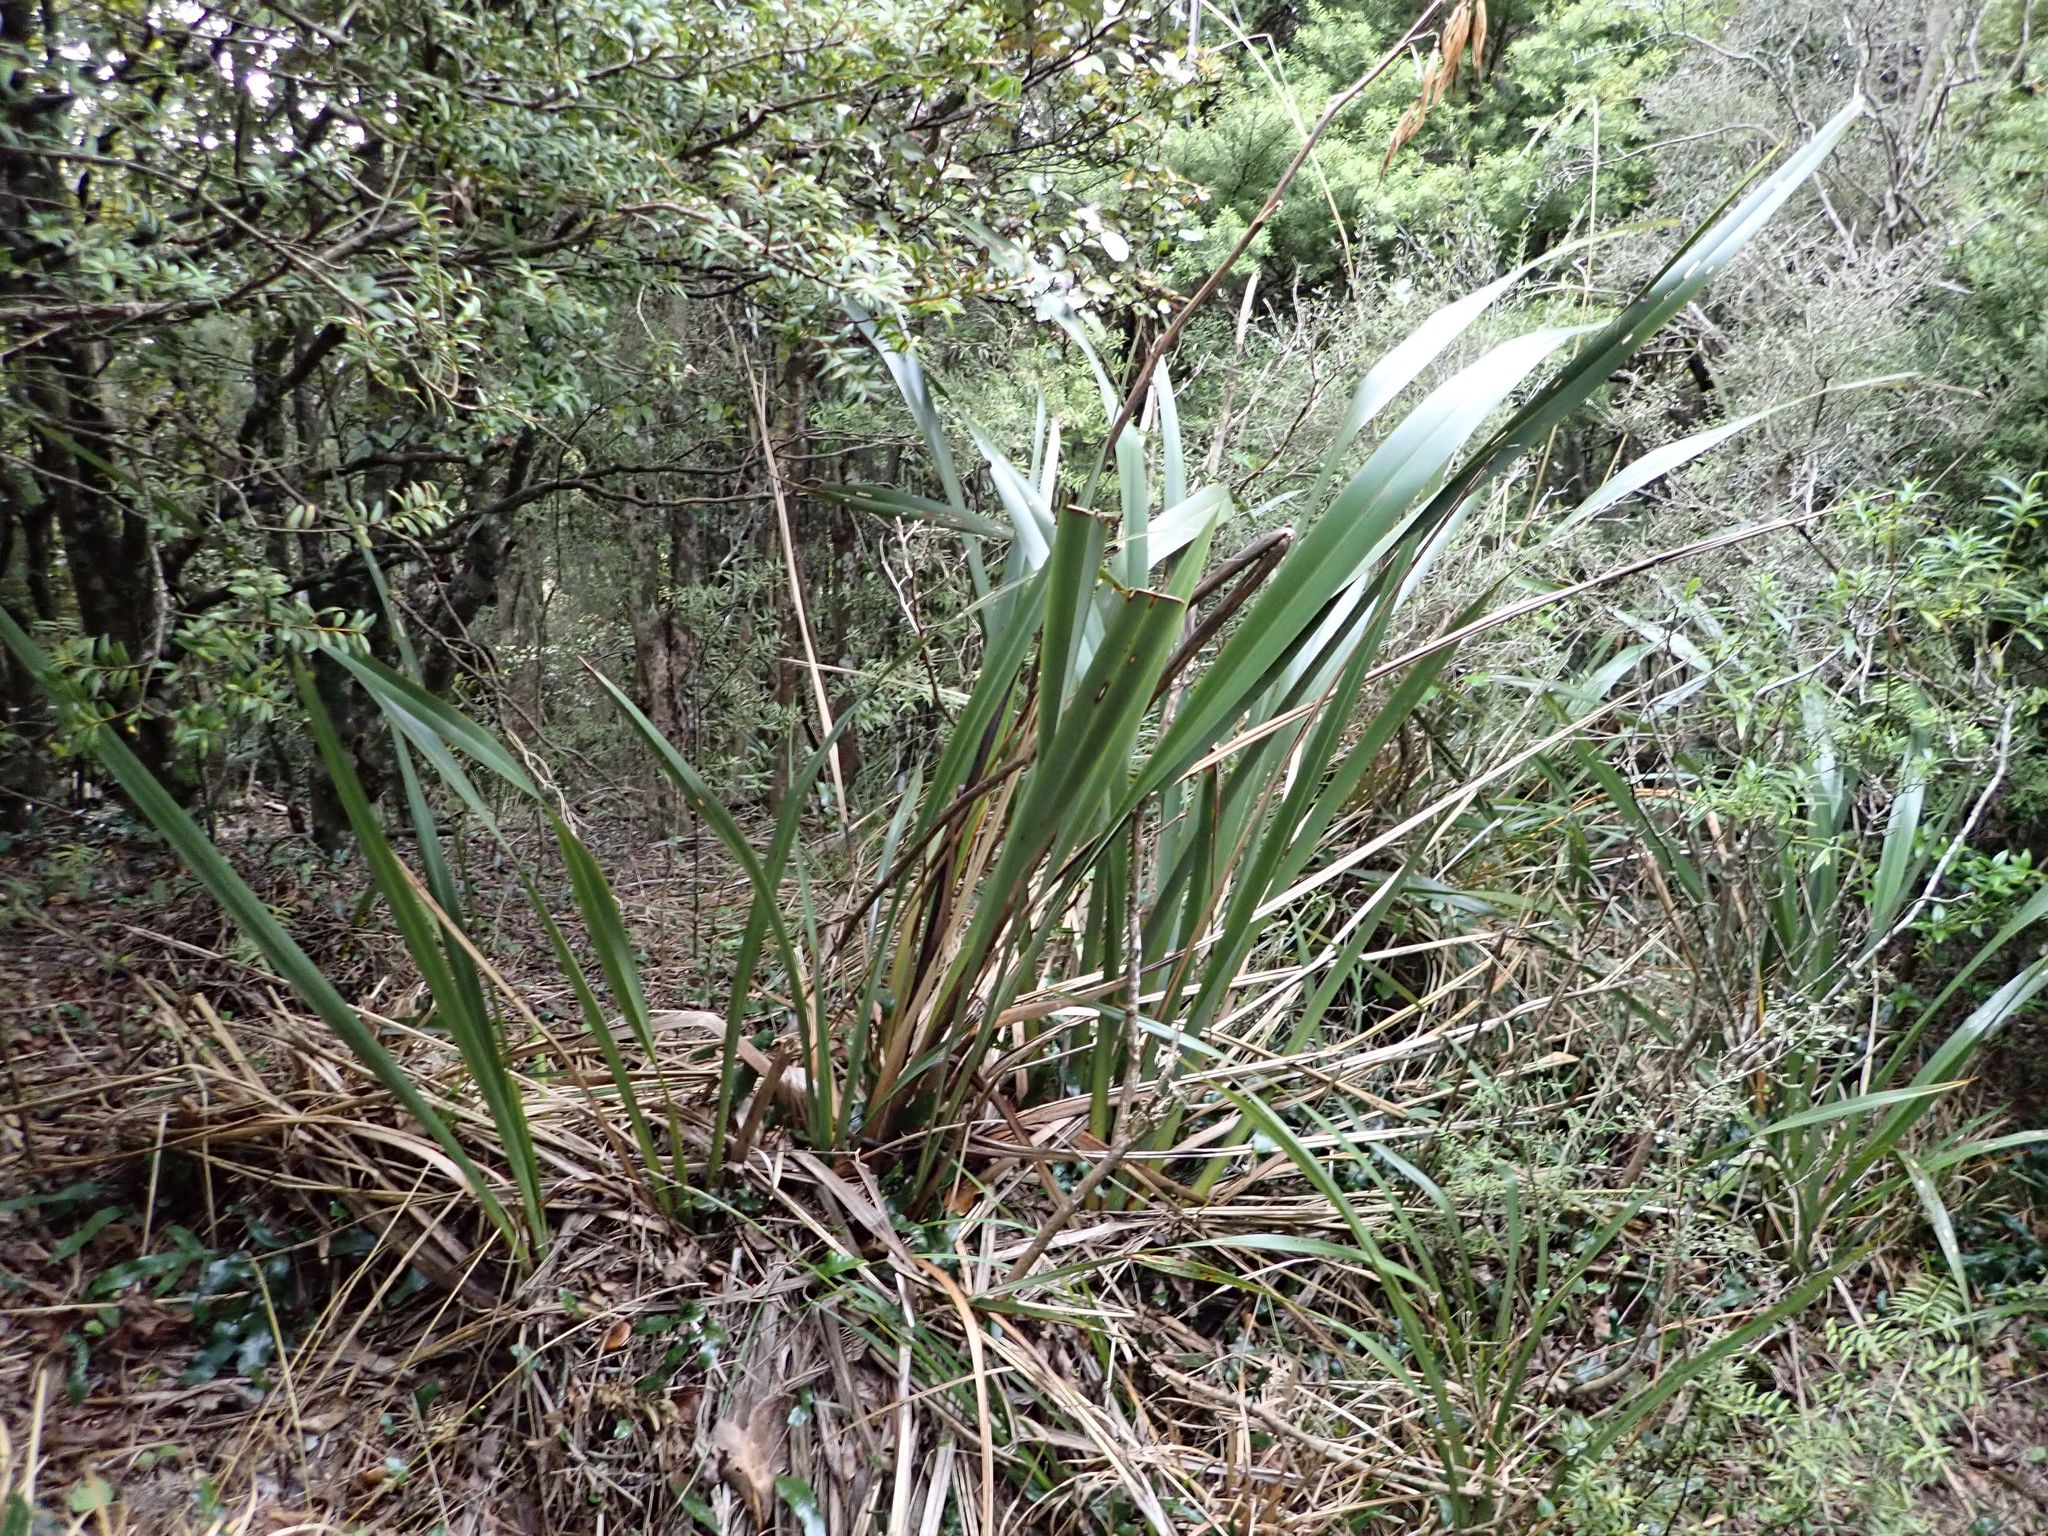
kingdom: Plantae
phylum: Tracheophyta
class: Liliopsida
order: Asparagales
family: Asphodelaceae
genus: Phormium
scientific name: Phormium colensoi
